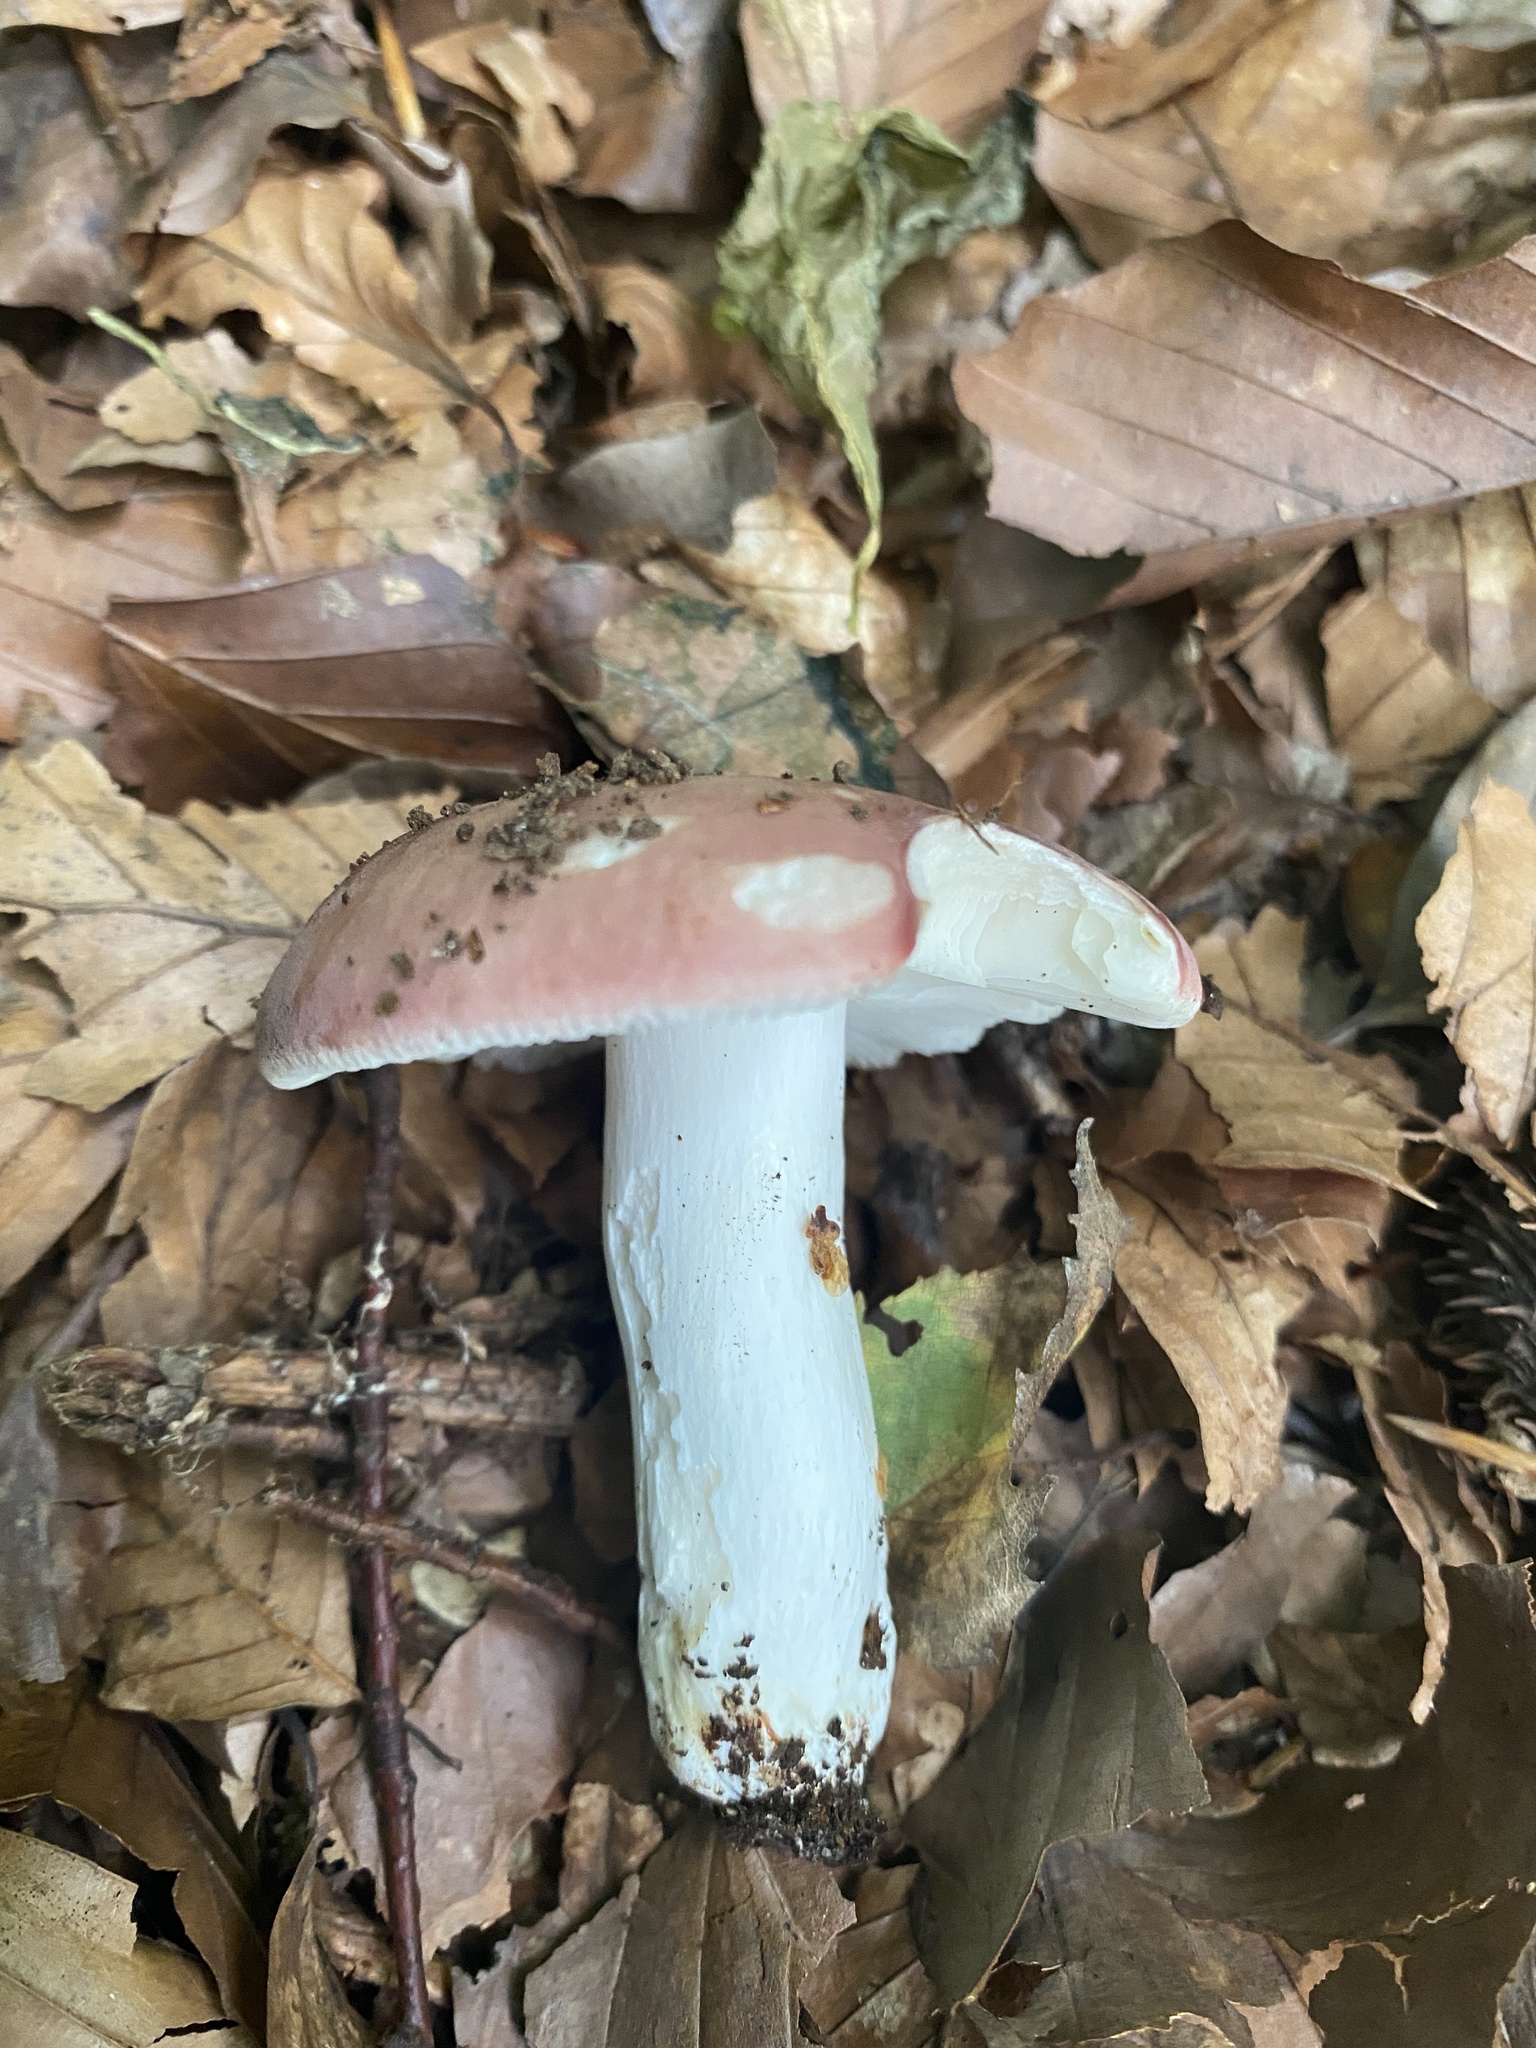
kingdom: Fungi
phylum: Basidiomycota
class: Agaricomycetes
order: Russulales
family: Russulaceae
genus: Russula
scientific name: Russula vesca
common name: Bare-toothed russula
